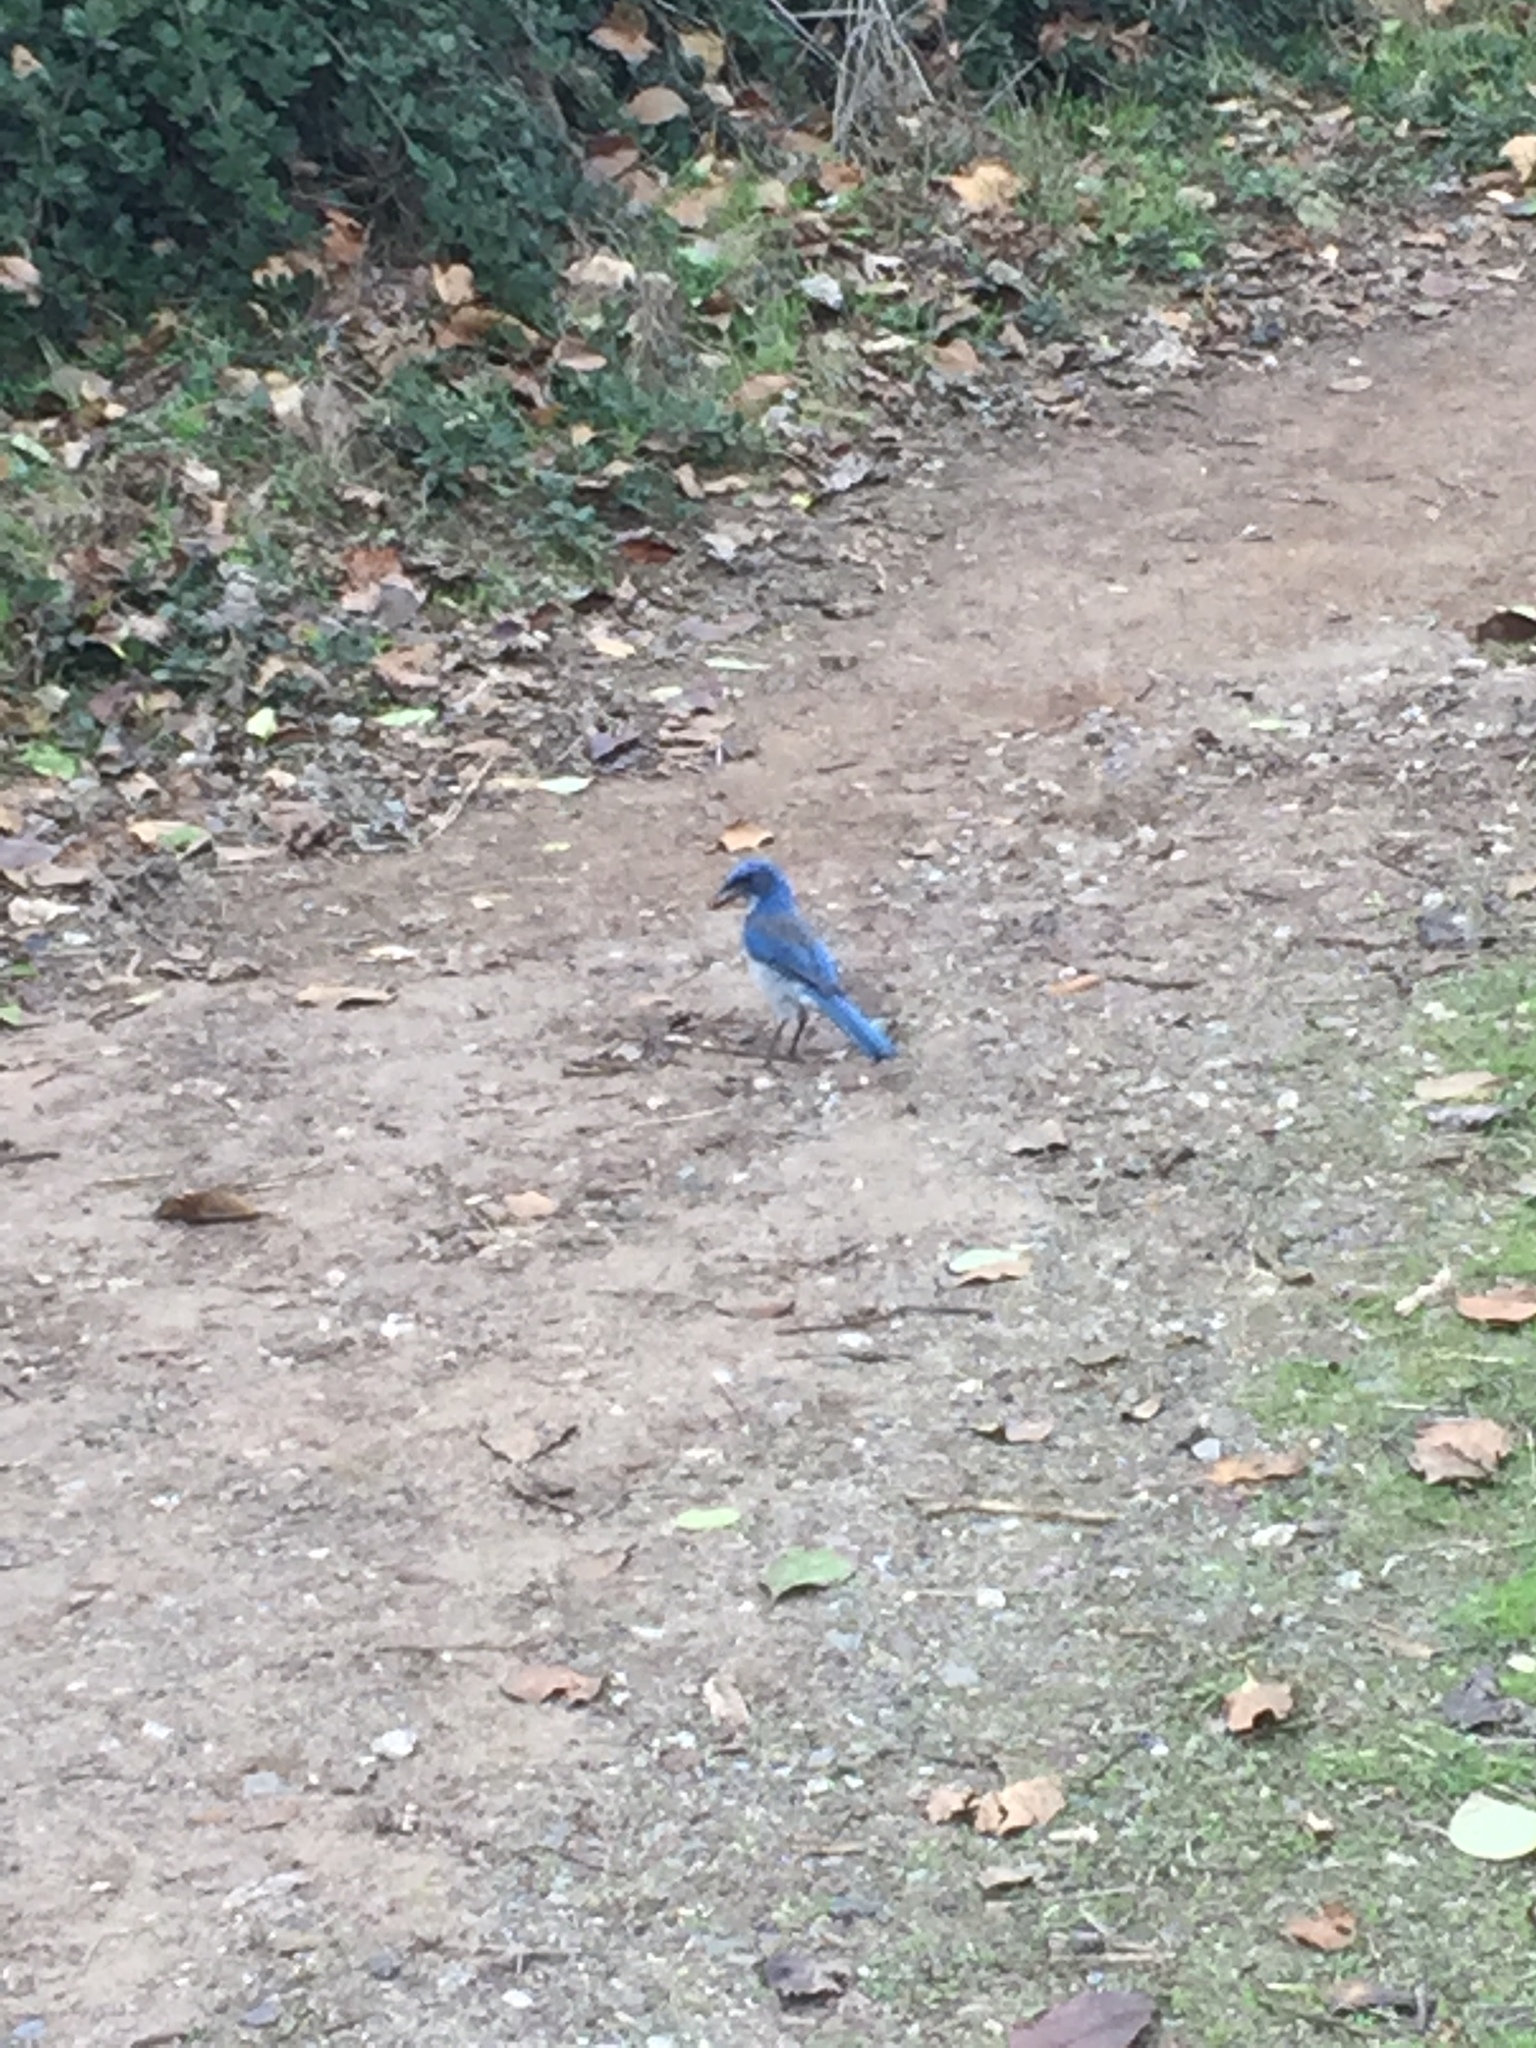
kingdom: Animalia
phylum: Chordata
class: Aves
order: Passeriformes
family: Corvidae
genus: Aphelocoma
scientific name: Aphelocoma californica
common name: California scrub-jay
